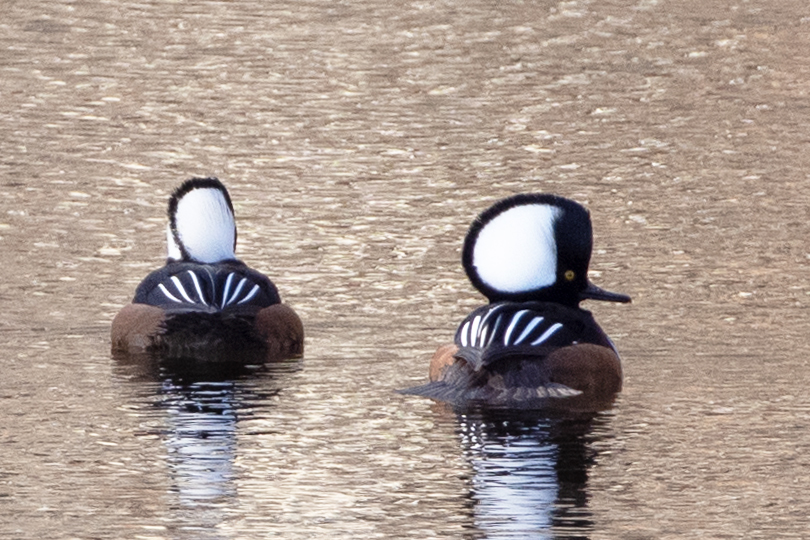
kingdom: Animalia
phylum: Chordata
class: Aves
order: Anseriformes
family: Anatidae
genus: Lophodytes
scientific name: Lophodytes cucullatus
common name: Hooded merganser
